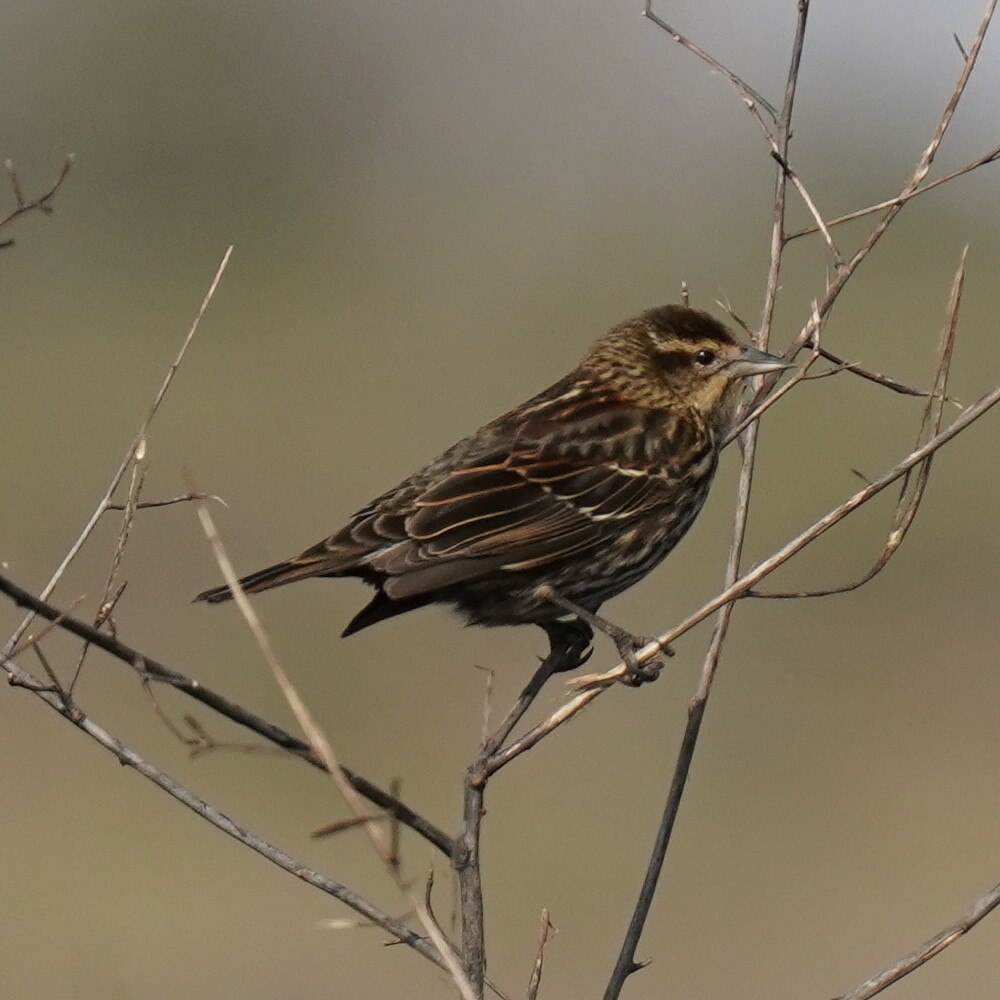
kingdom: Animalia
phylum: Chordata
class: Aves
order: Passeriformes
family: Icteridae
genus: Agelaius
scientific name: Agelaius phoeniceus
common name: Red-winged blackbird
